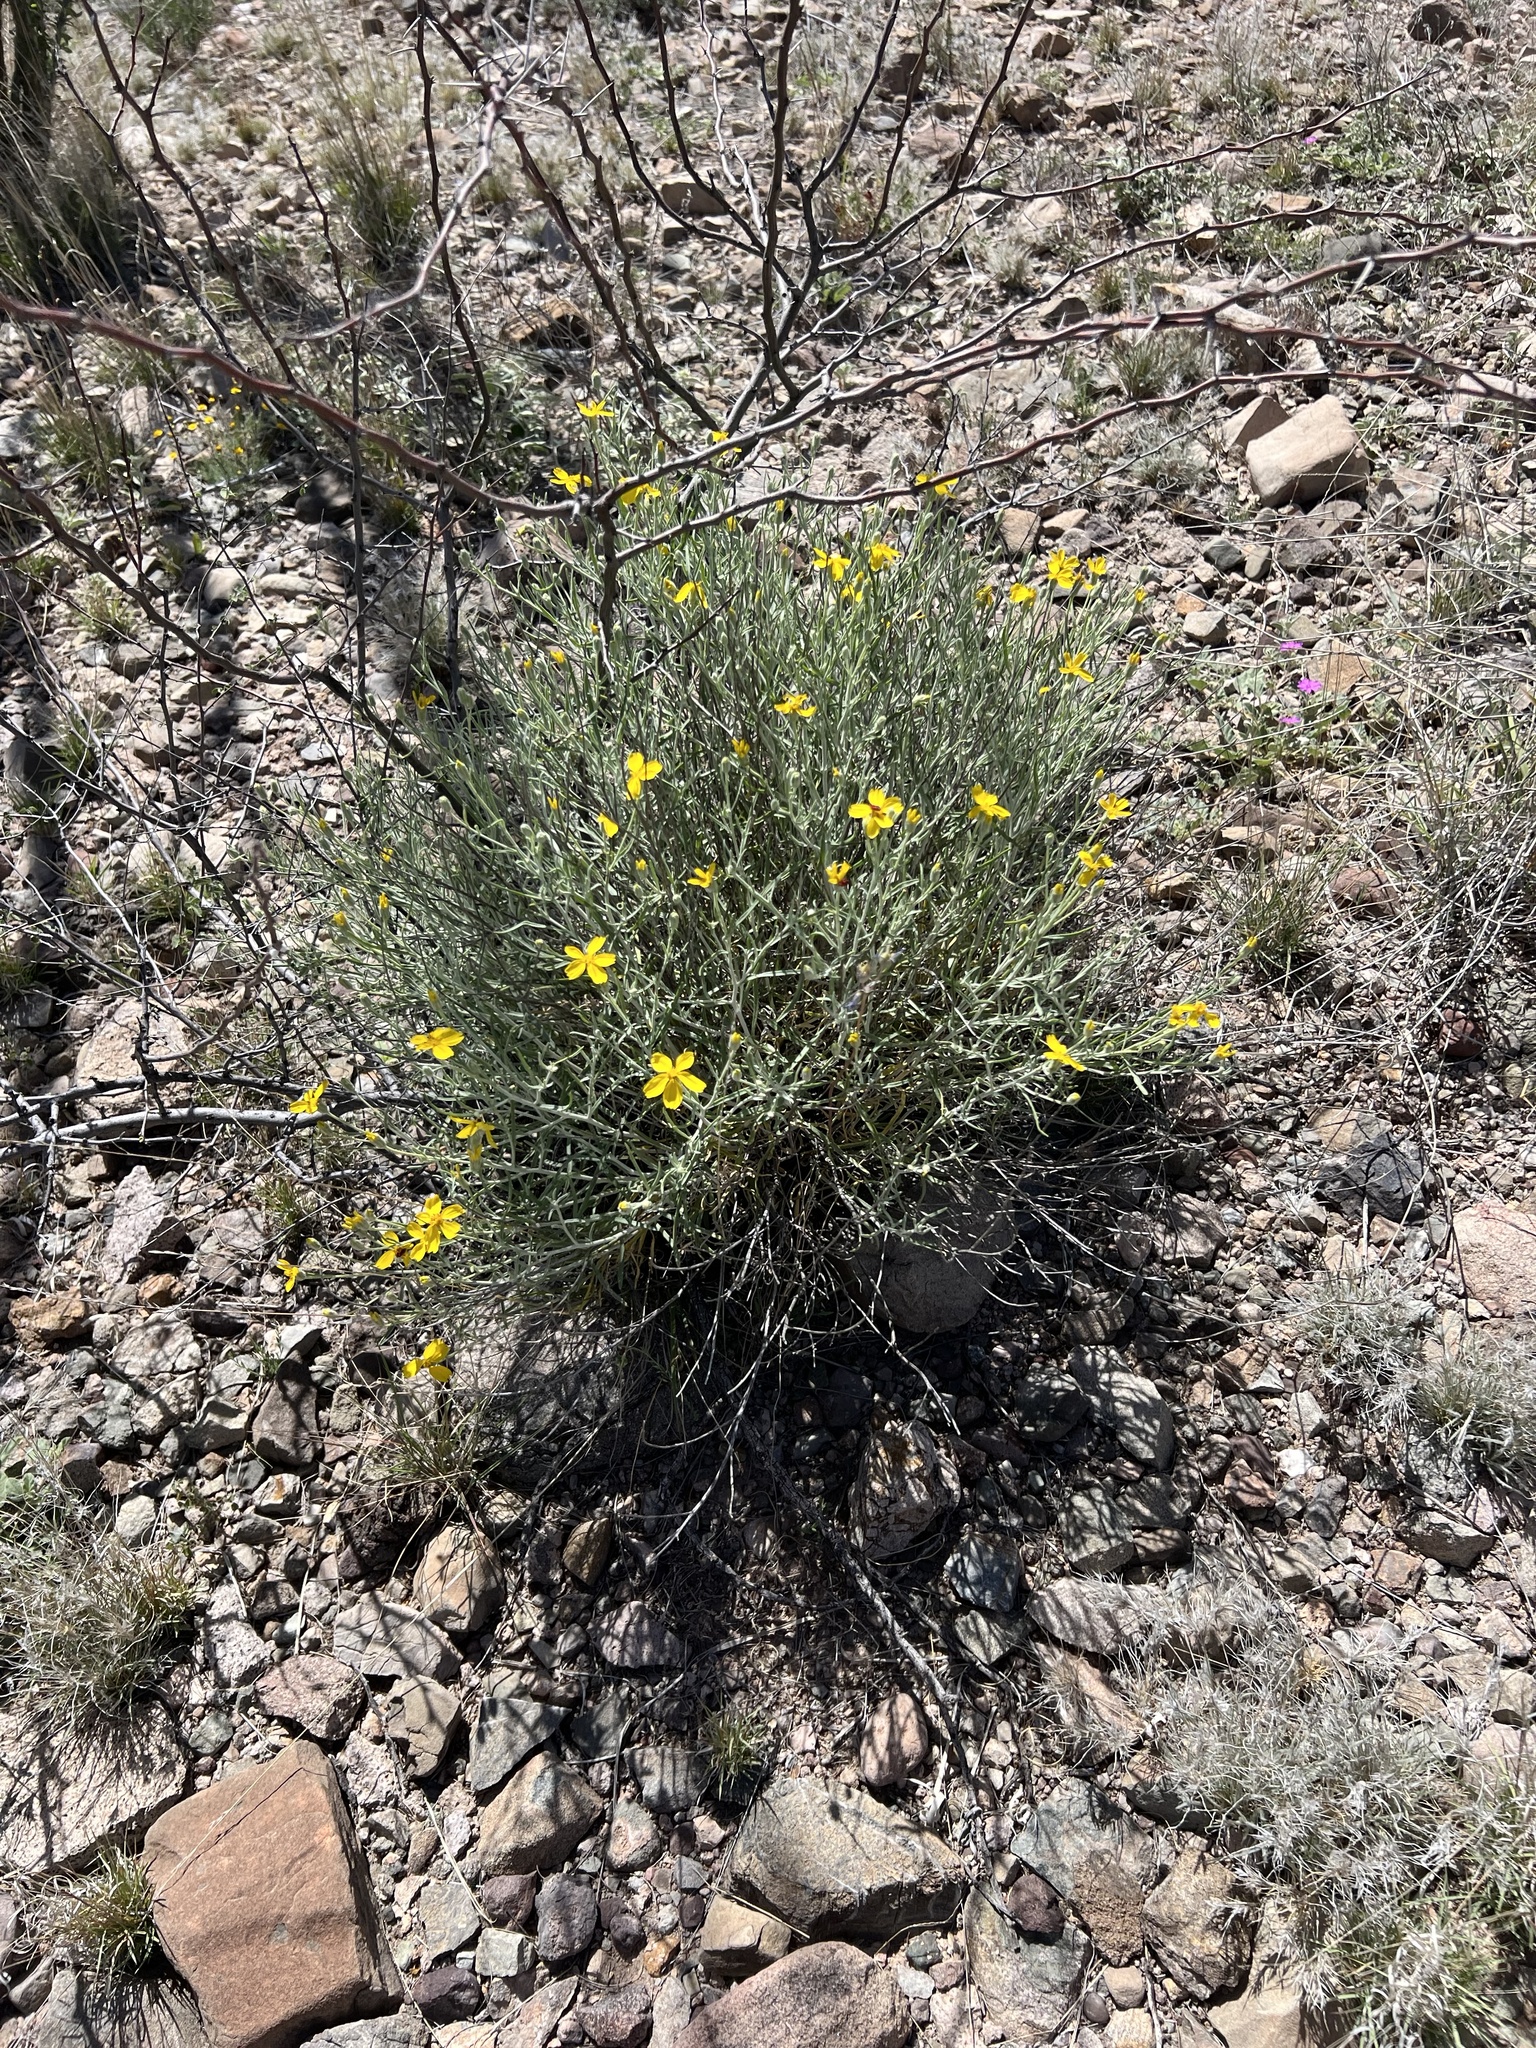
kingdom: Plantae
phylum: Tracheophyta
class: Magnoliopsida
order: Asterales
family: Asteraceae
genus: Psilostrophe
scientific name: Psilostrophe cooperi
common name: White-stem paper-flower
